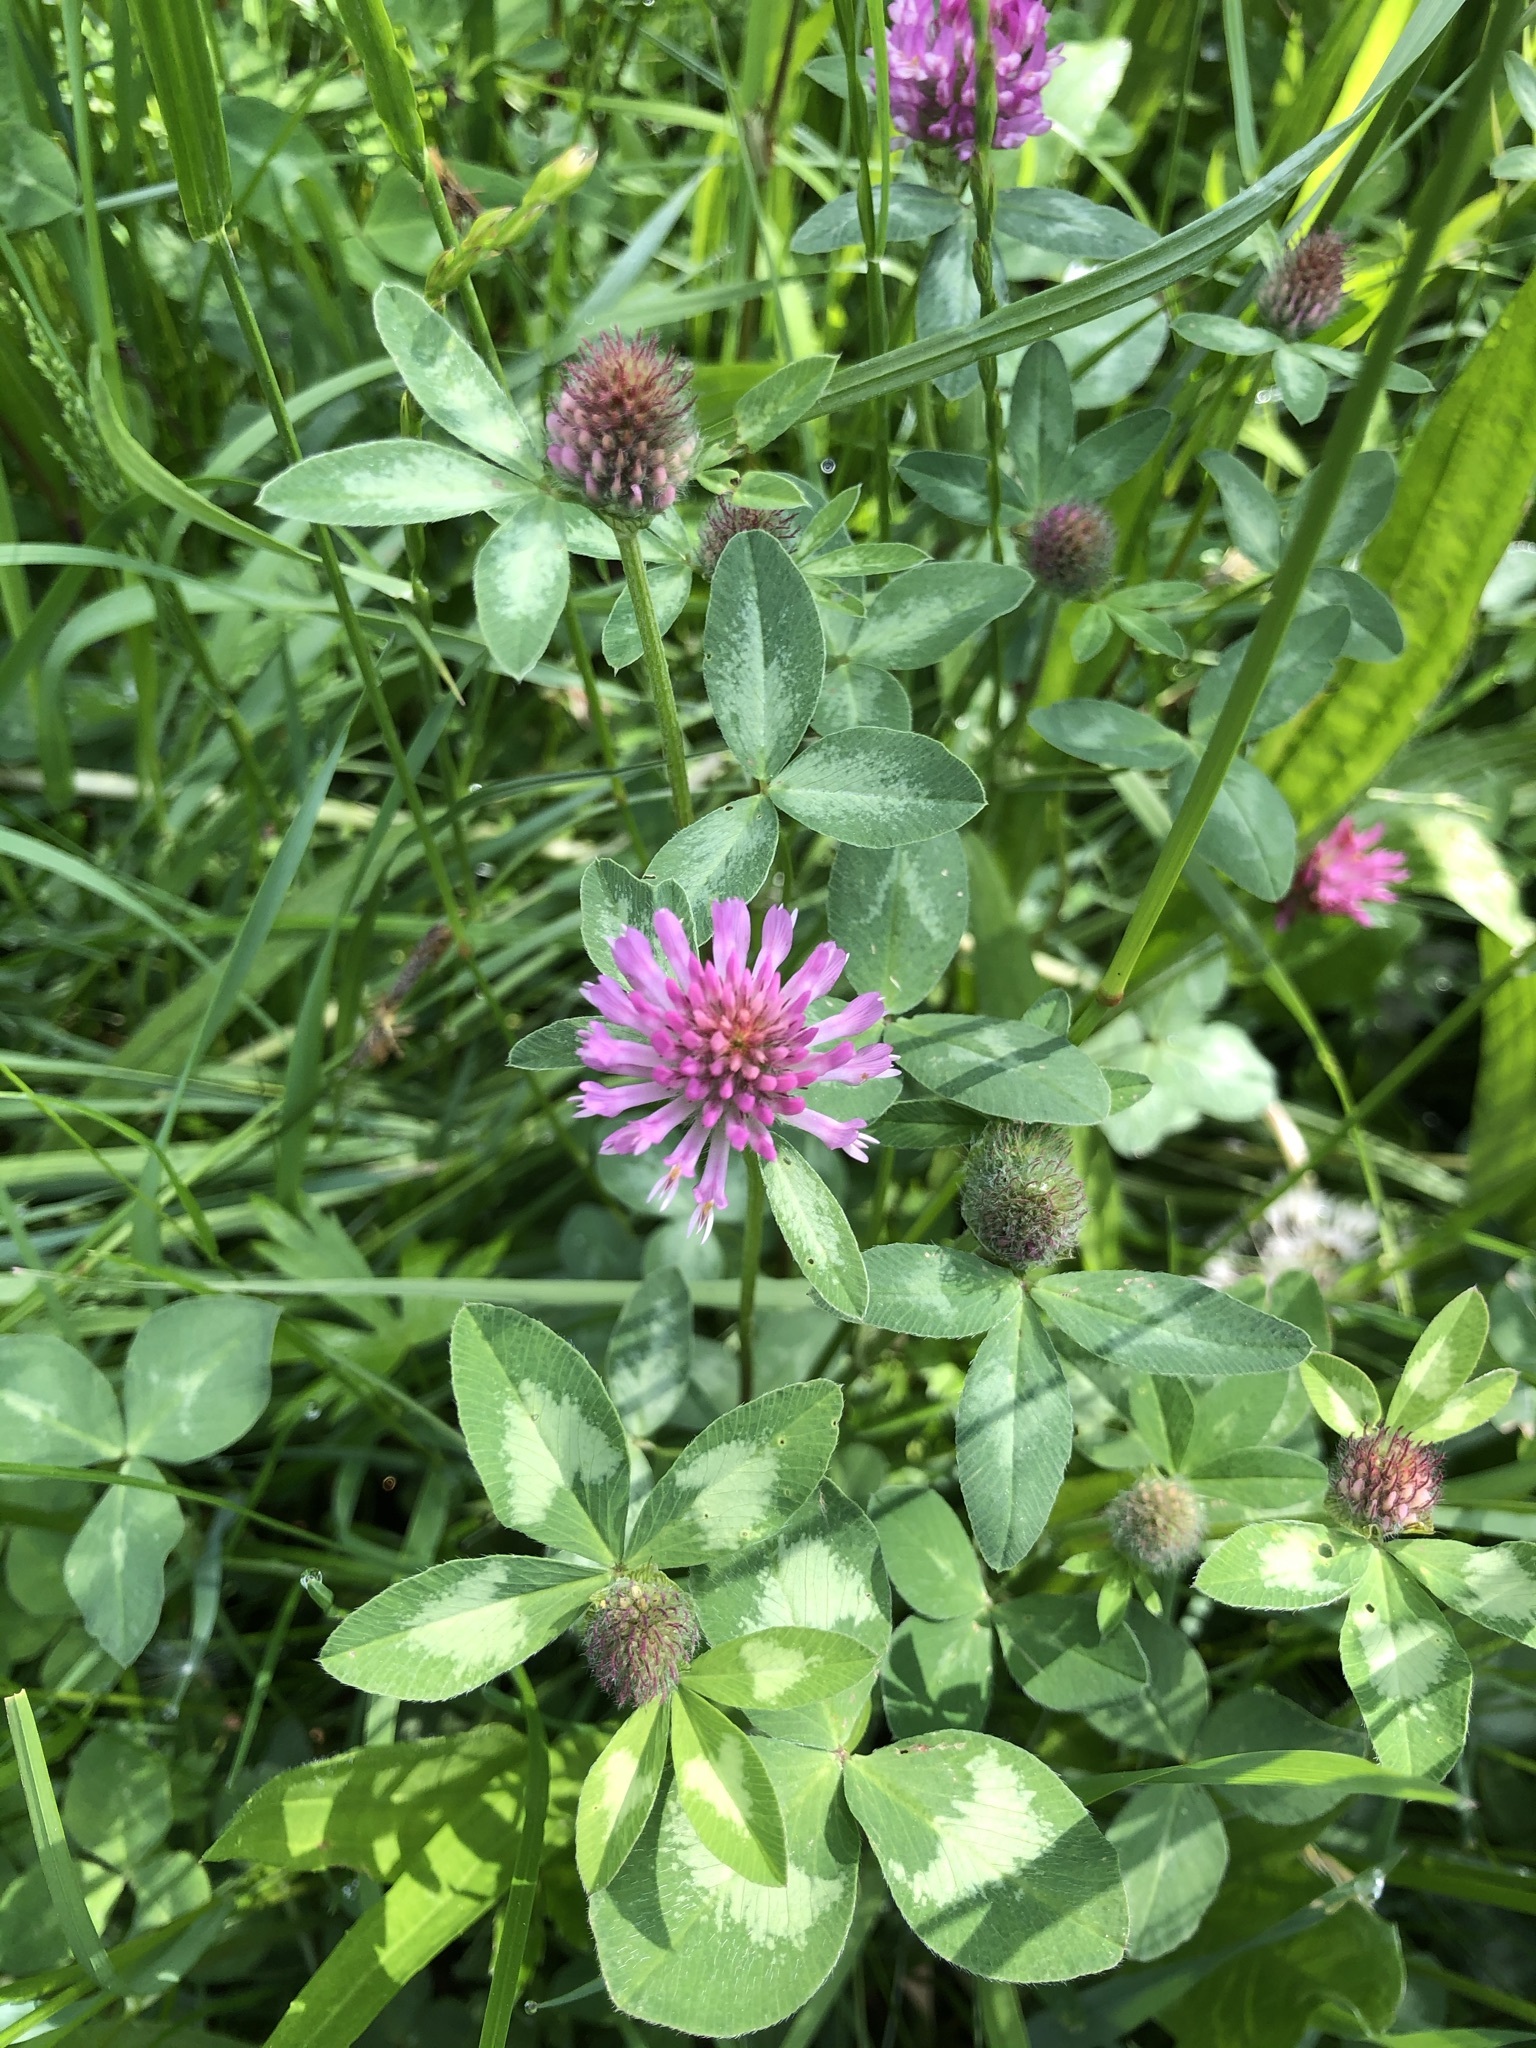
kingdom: Plantae
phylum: Tracheophyta
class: Magnoliopsida
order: Fabales
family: Fabaceae
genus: Trifolium
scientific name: Trifolium pratense
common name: Red clover
